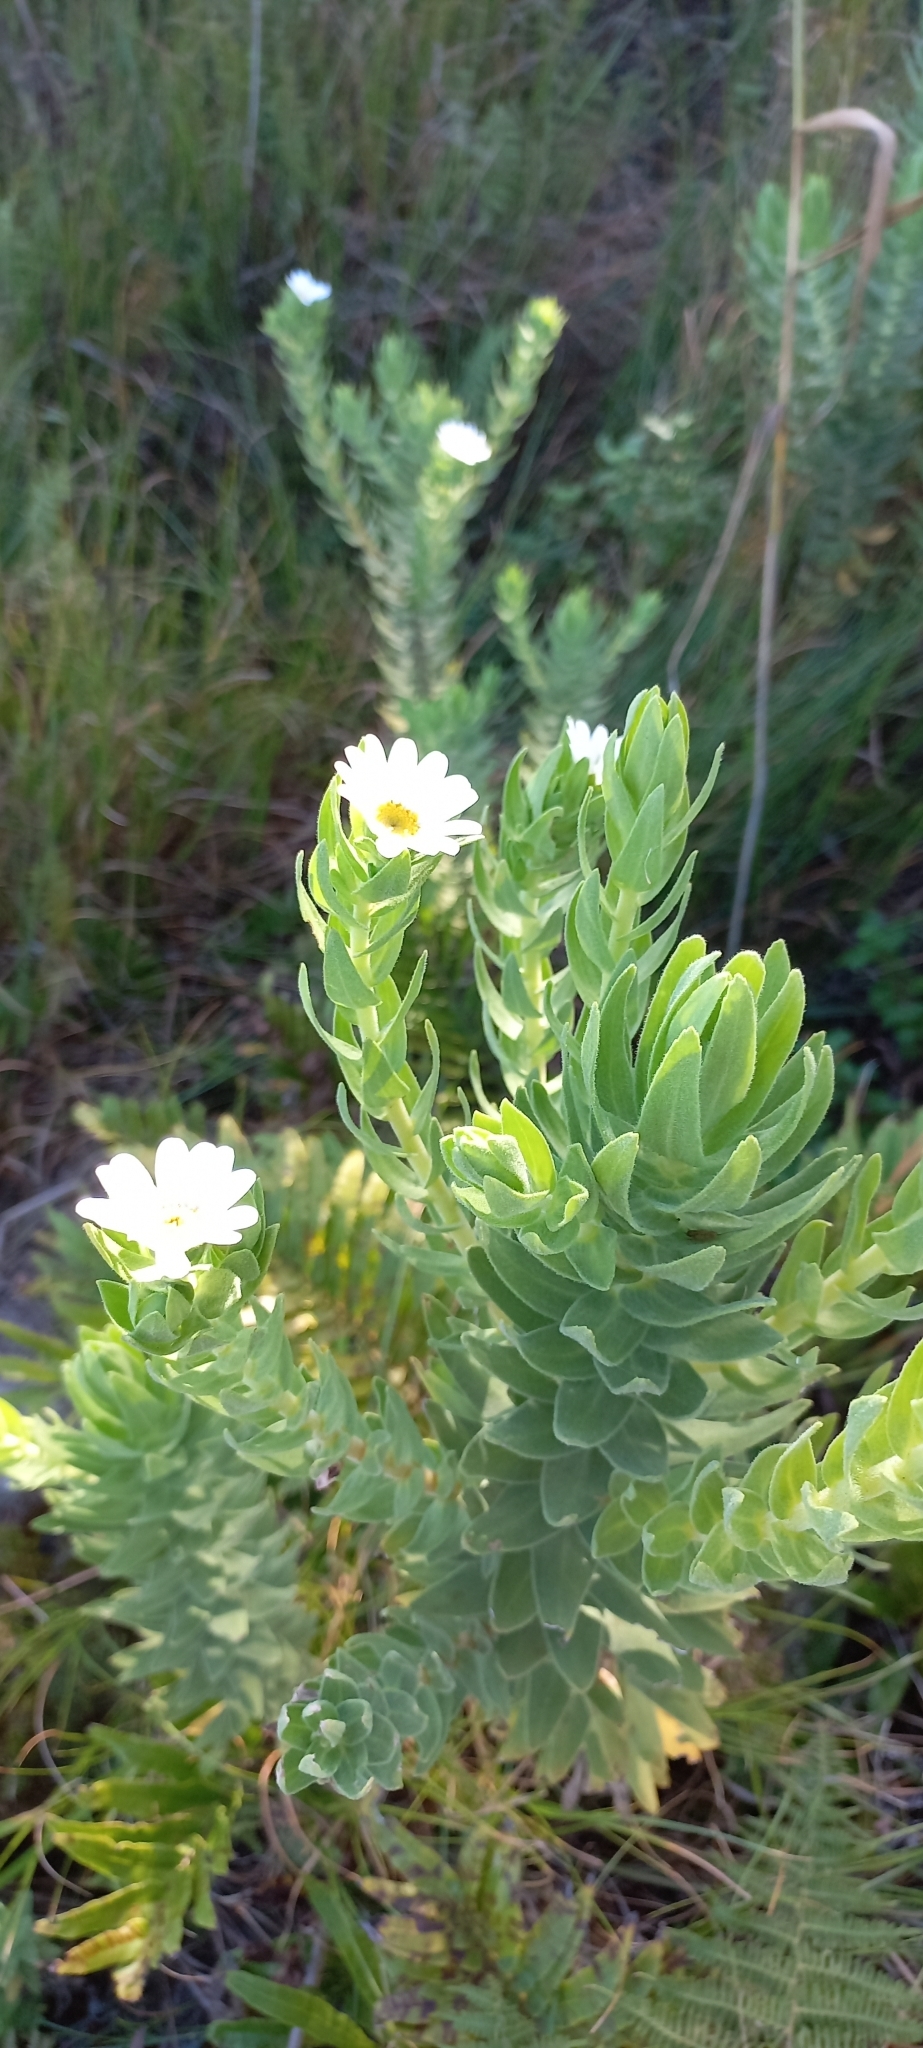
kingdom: Plantae
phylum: Tracheophyta
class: Magnoliopsida
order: Asterales
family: Asteraceae
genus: Osmitopsis
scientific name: Osmitopsis asteriscoides
